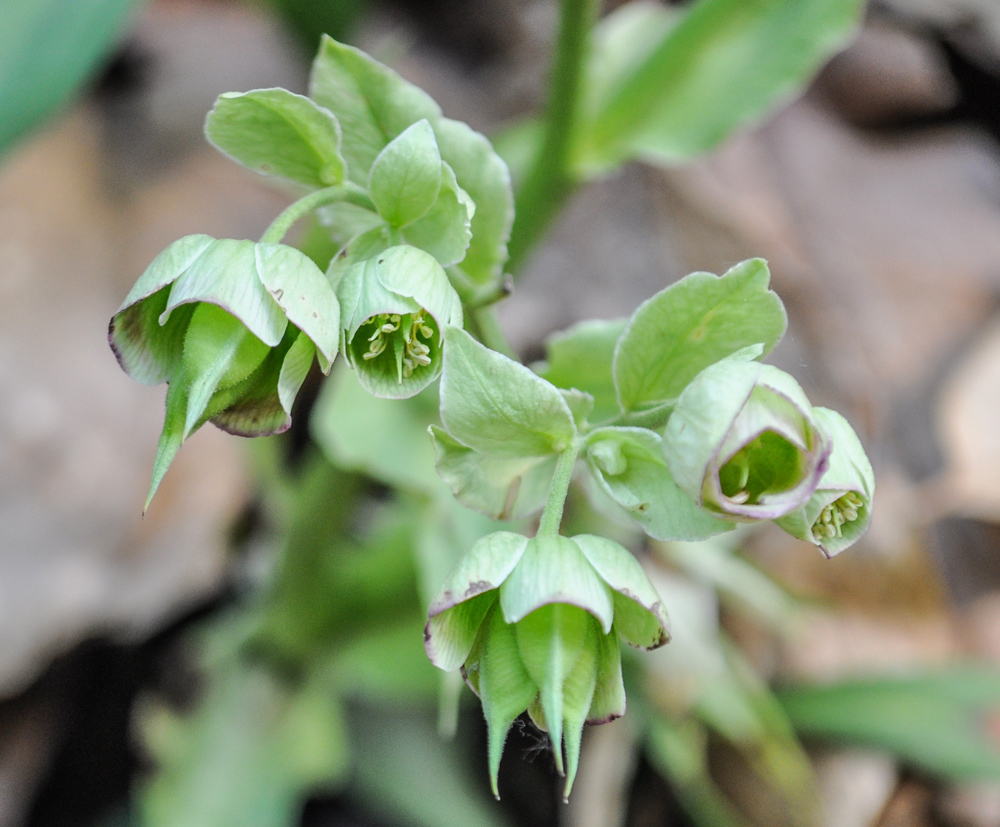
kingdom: Plantae
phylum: Tracheophyta
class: Magnoliopsida
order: Ranunculales
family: Ranunculaceae
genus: Helleborus
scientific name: Helleborus foetidus
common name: Stinking hellebore
